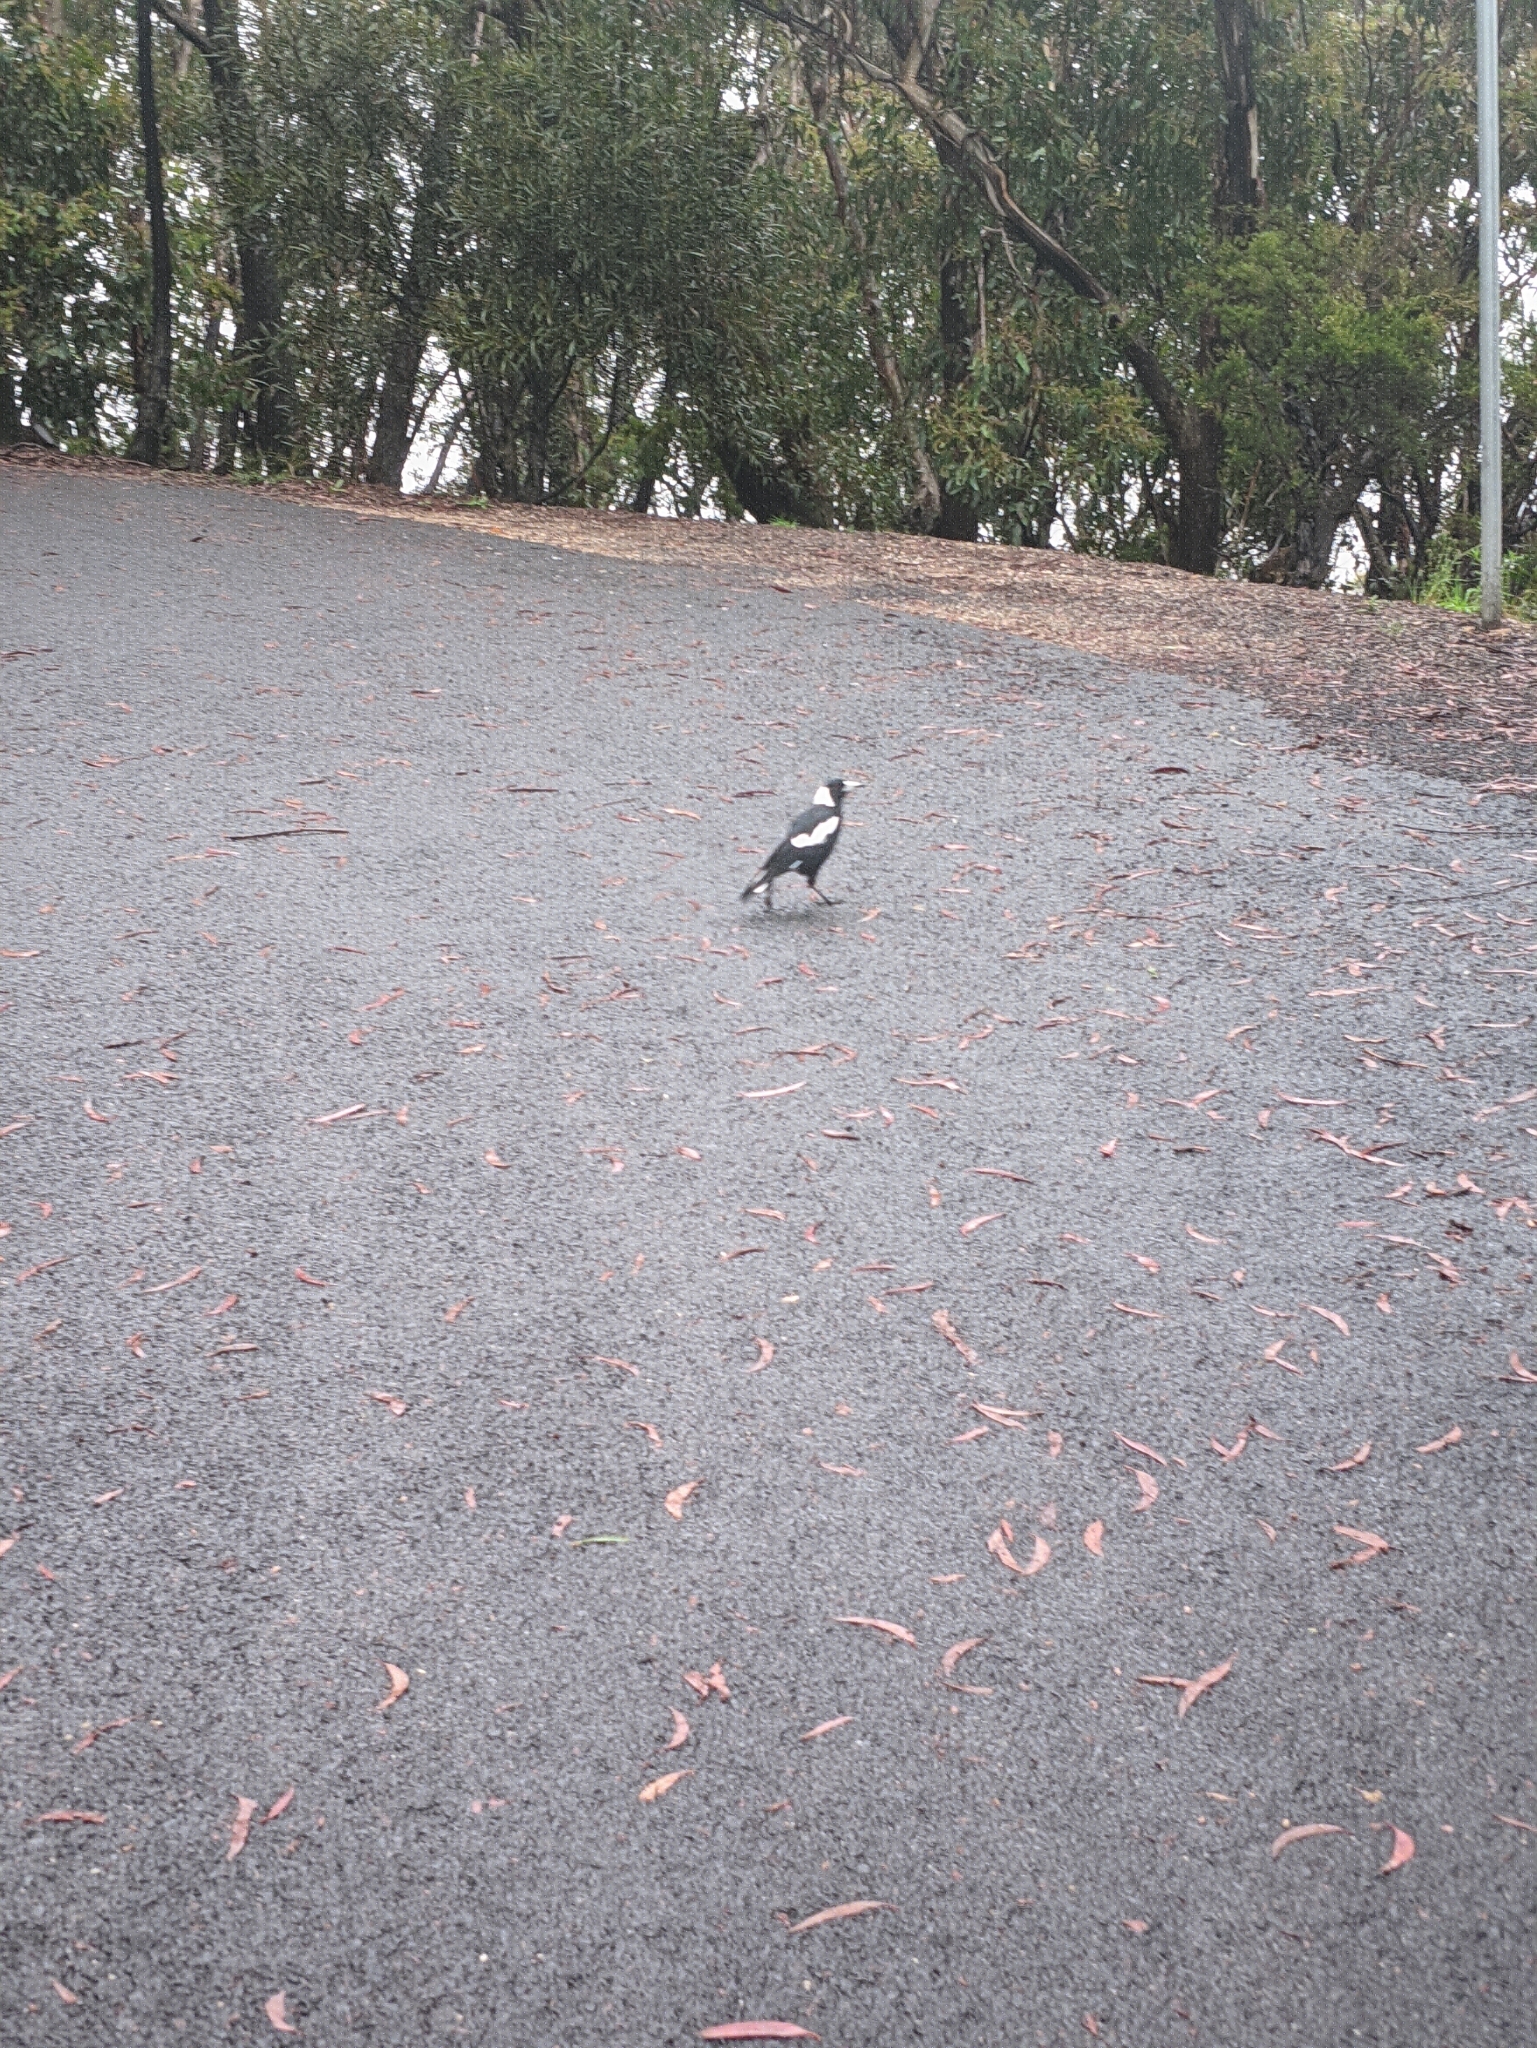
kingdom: Animalia
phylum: Chordata
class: Aves
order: Passeriformes
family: Cracticidae
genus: Gymnorhina
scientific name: Gymnorhina tibicen
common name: Australian magpie
